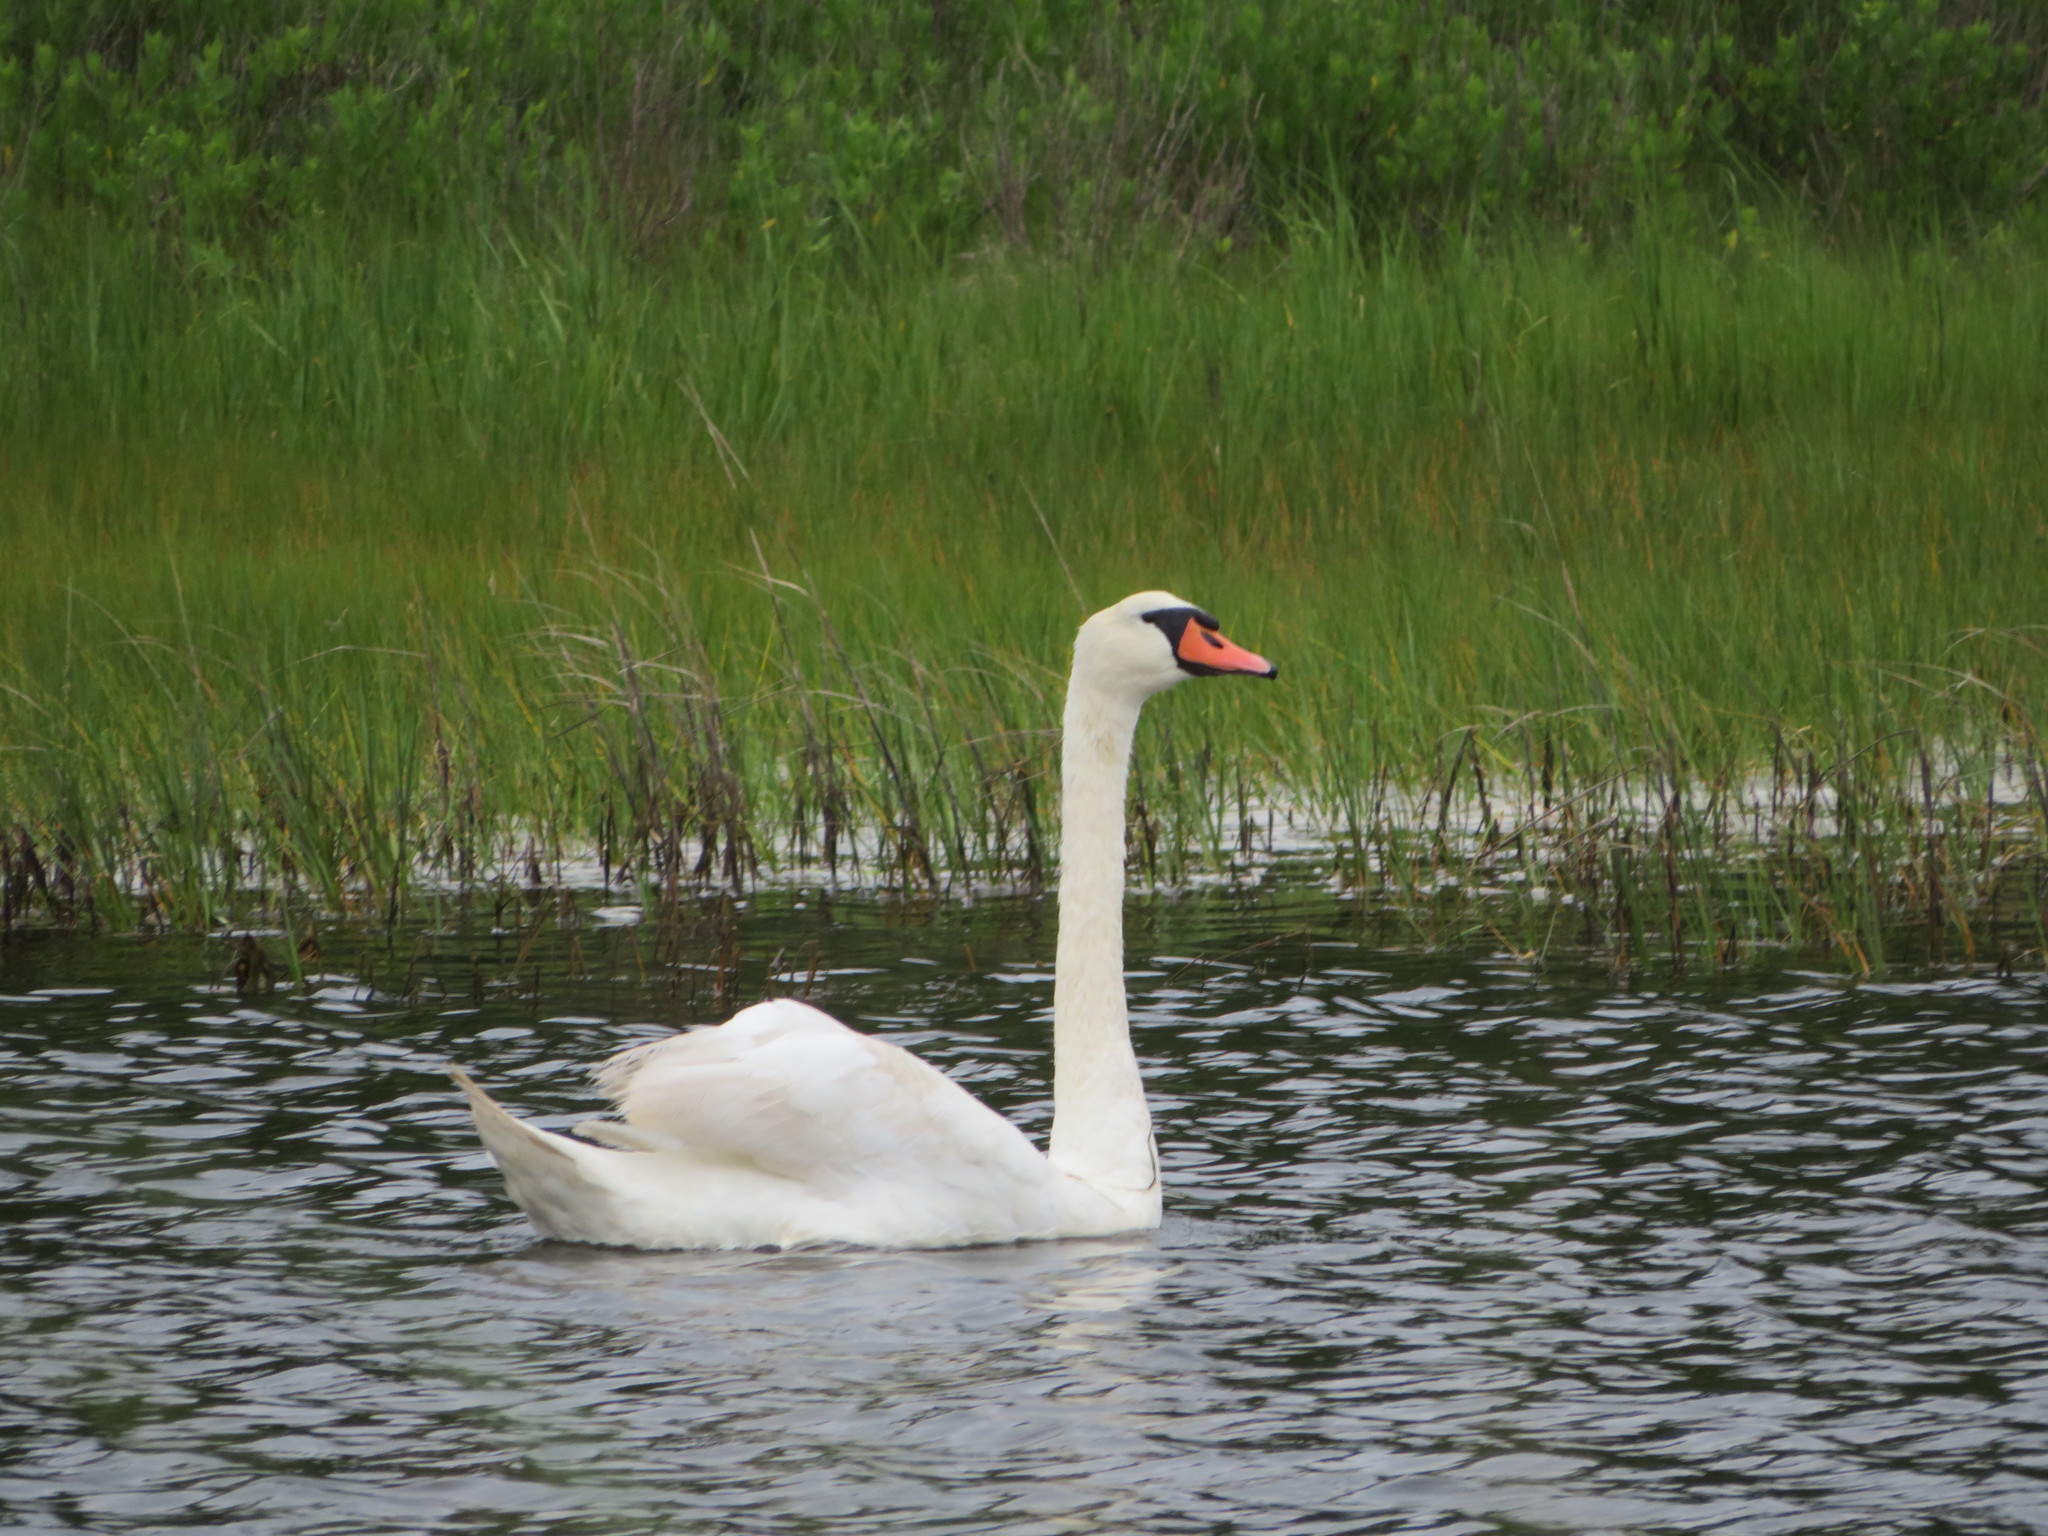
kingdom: Animalia
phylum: Chordata
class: Aves
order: Anseriformes
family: Anatidae
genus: Cygnus
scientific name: Cygnus olor
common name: Mute swan
